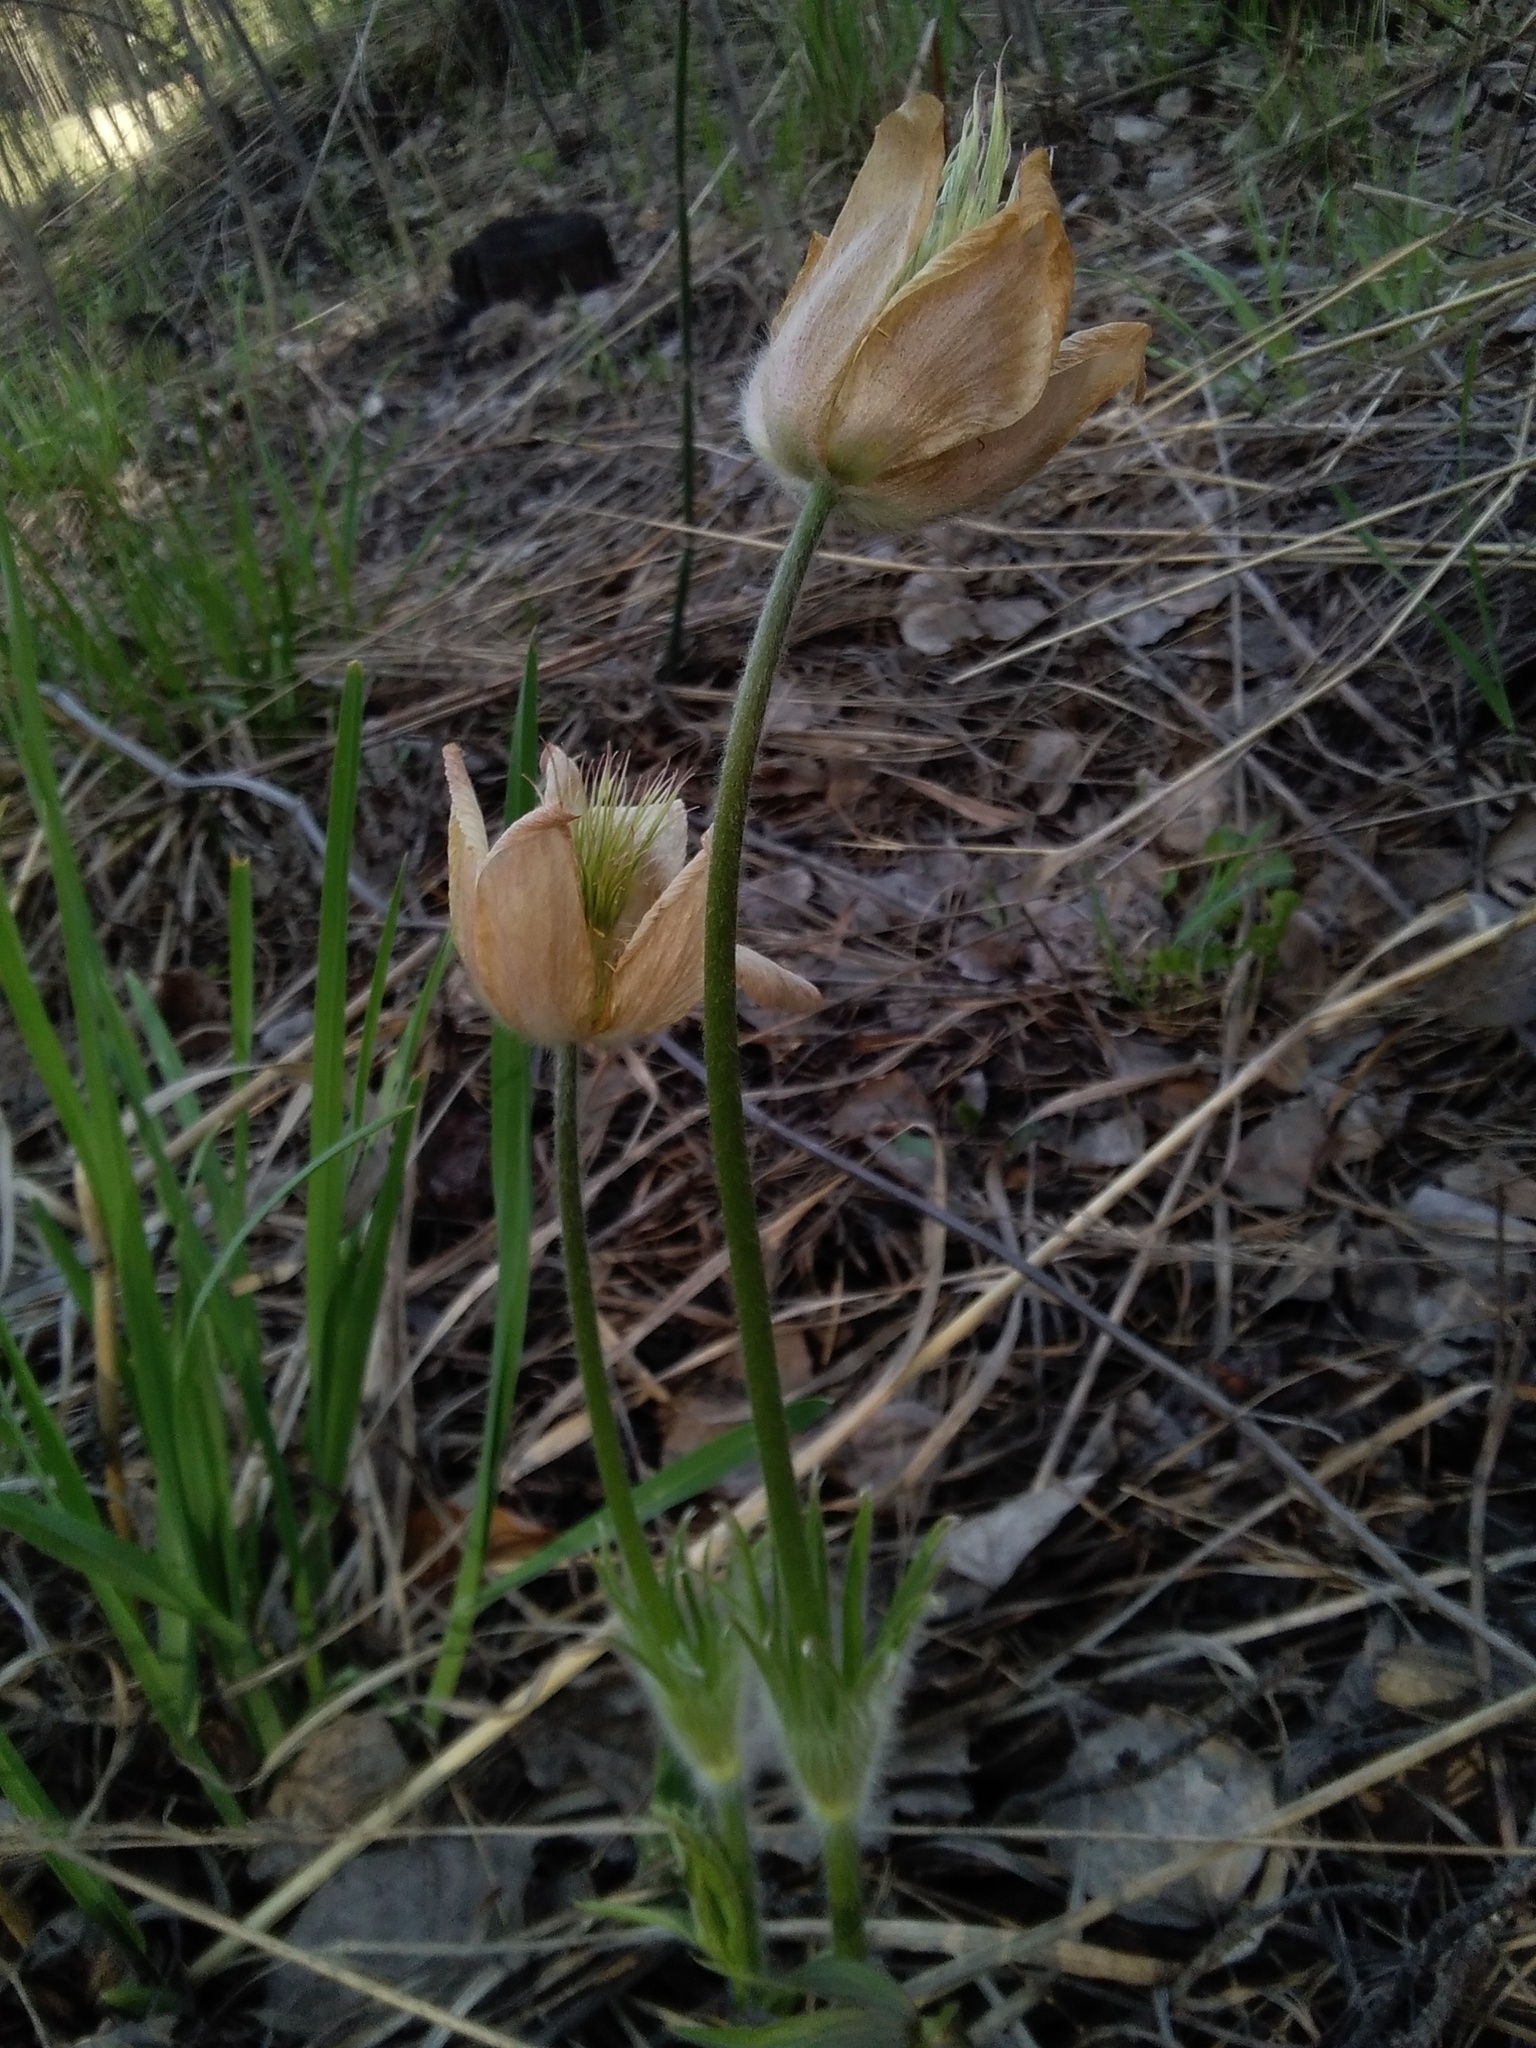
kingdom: Plantae
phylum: Tracheophyta
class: Magnoliopsida
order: Ranunculales
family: Ranunculaceae
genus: Pulsatilla
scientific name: Pulsatilla patens
